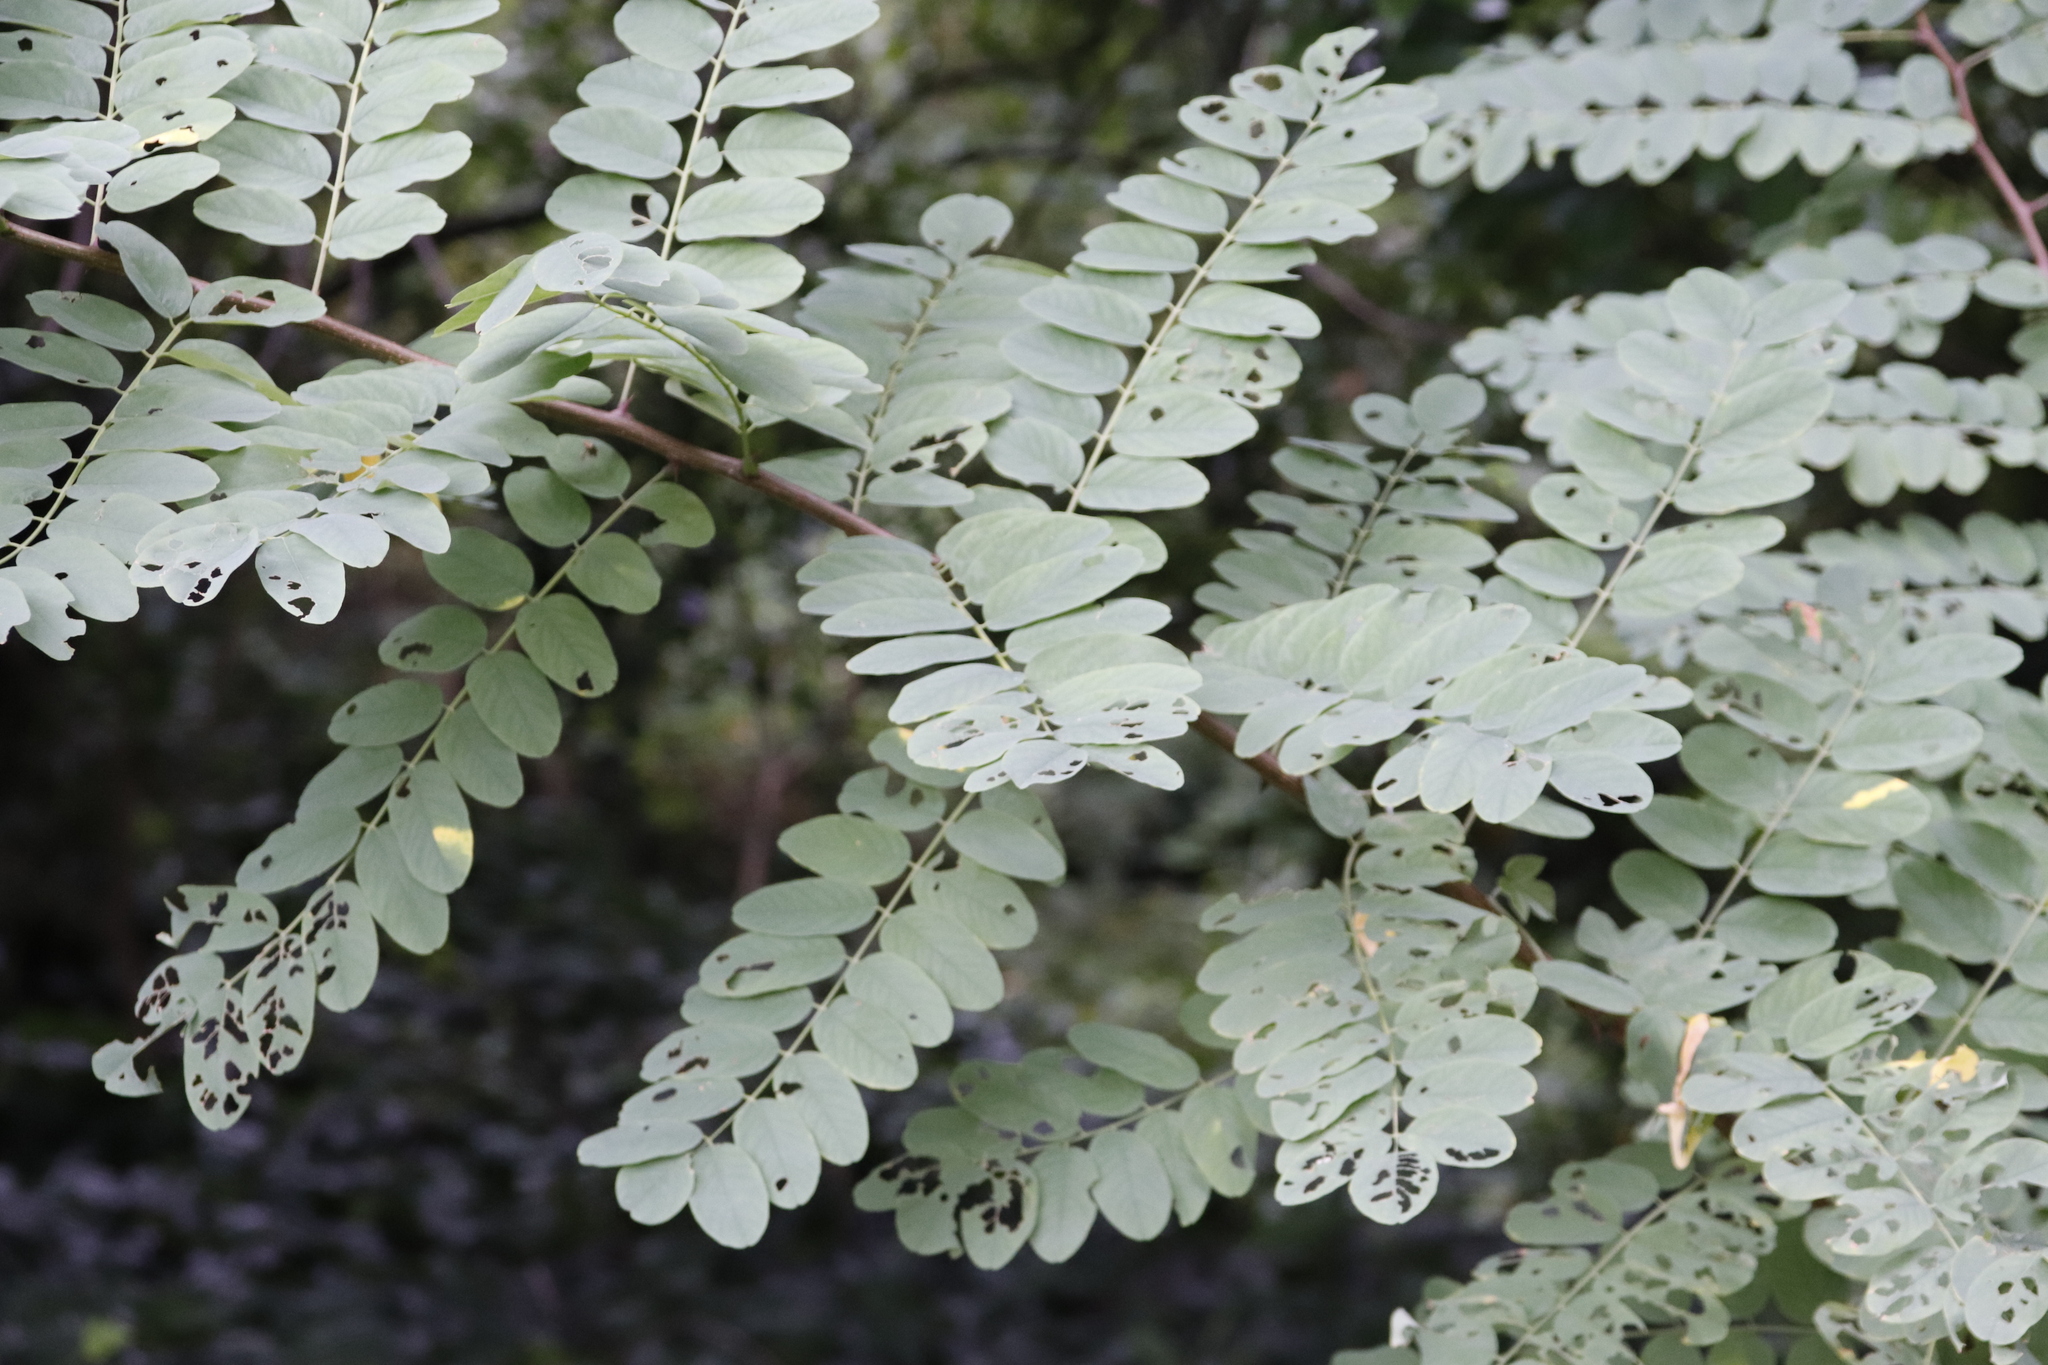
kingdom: Plantae
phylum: Tracheophyta
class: Magnoliopsida
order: Fabales
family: Fabaceae
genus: Robinia
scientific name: Robinia pseudoacacia
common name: Black locust
